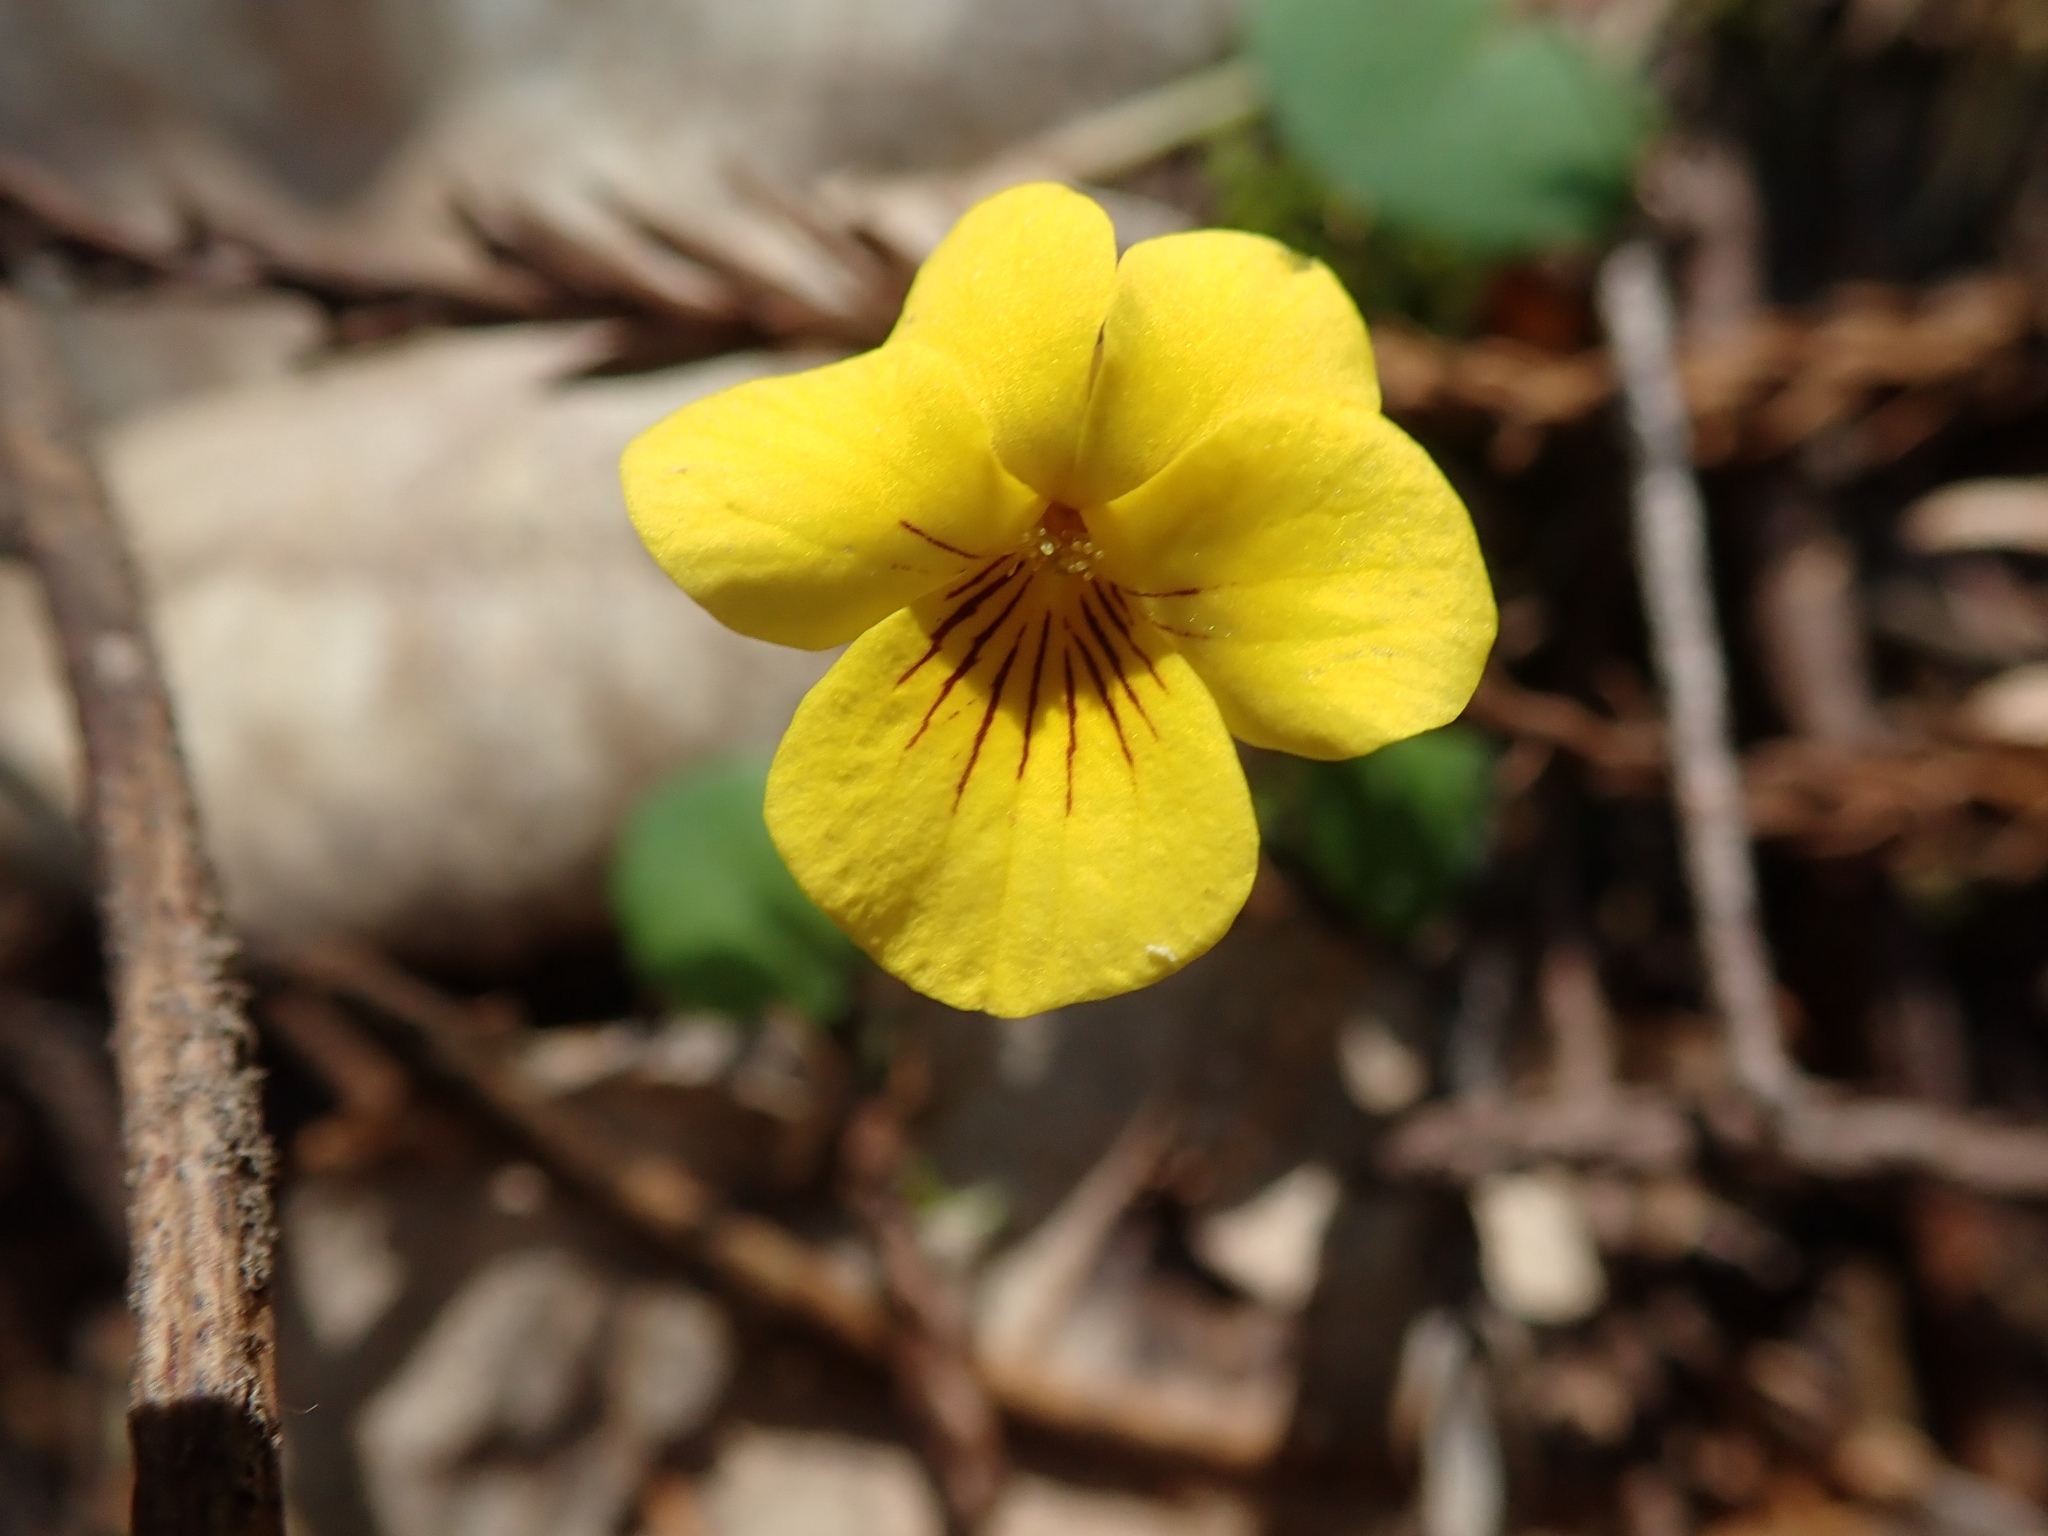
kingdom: Plantae
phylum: Tracheophyta
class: Magnoliopsida
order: Malpighiales
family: Violaceae
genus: Viola
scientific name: Viola sempervirens
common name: Evergreen violet
